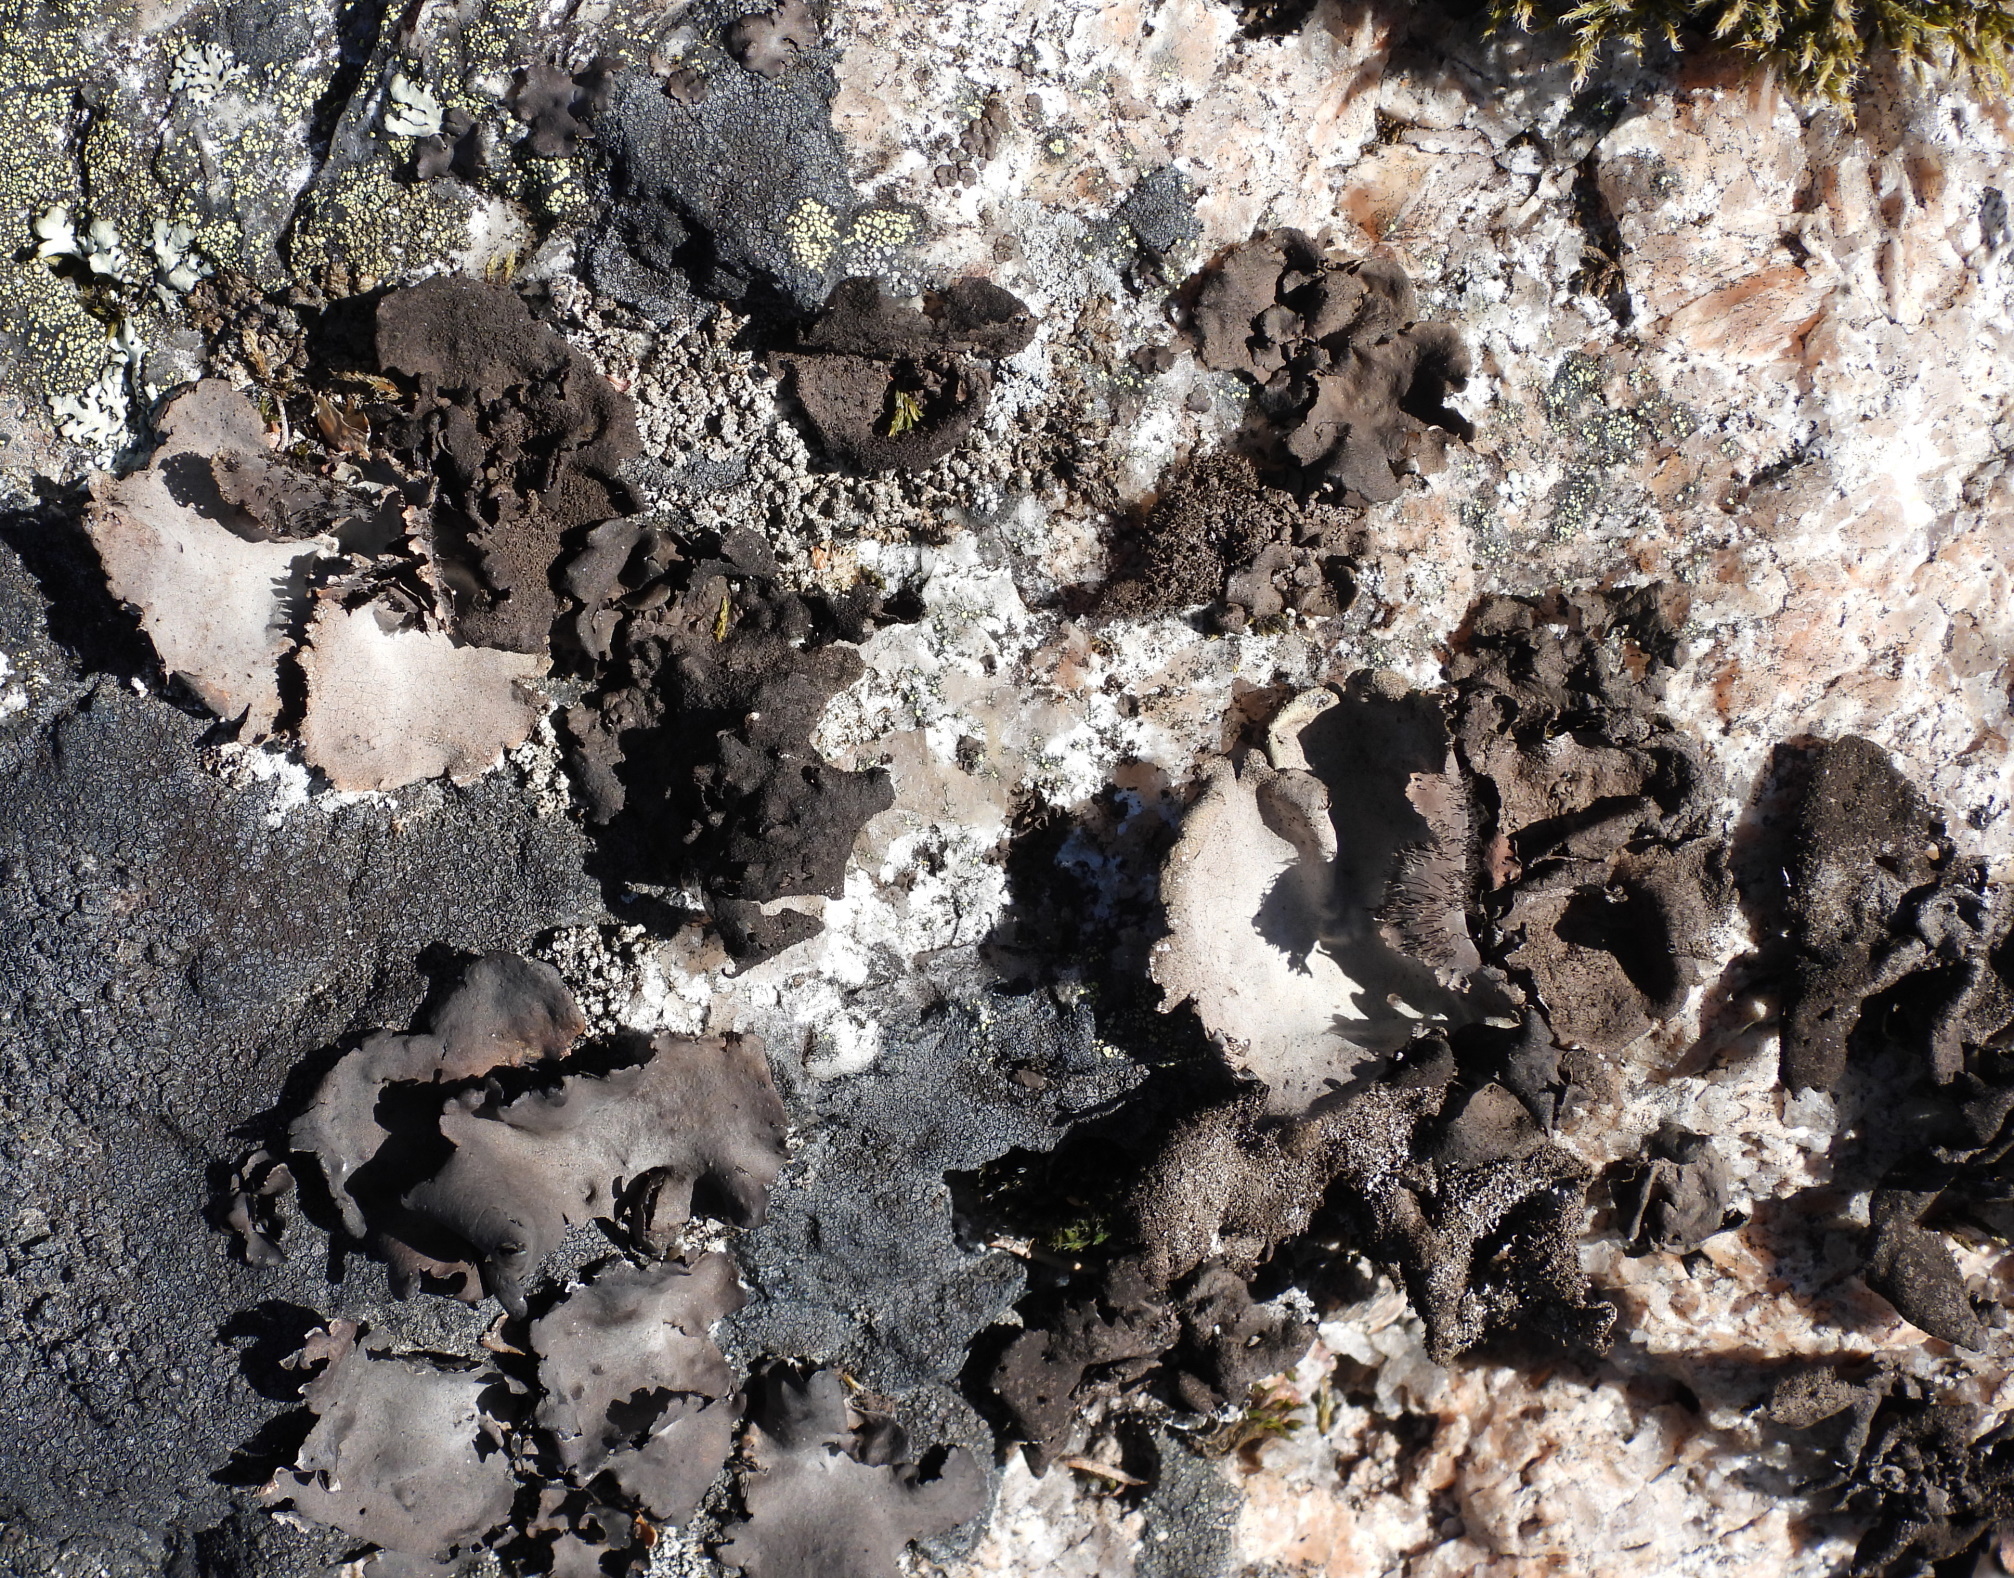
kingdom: Fungi
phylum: Ascomycota
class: Lecanoromycetes
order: Umbilicariales
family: Umbilicariaceae
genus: Umbilicaria
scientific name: Umbilicaria deusta
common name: Peppered rock tripe
